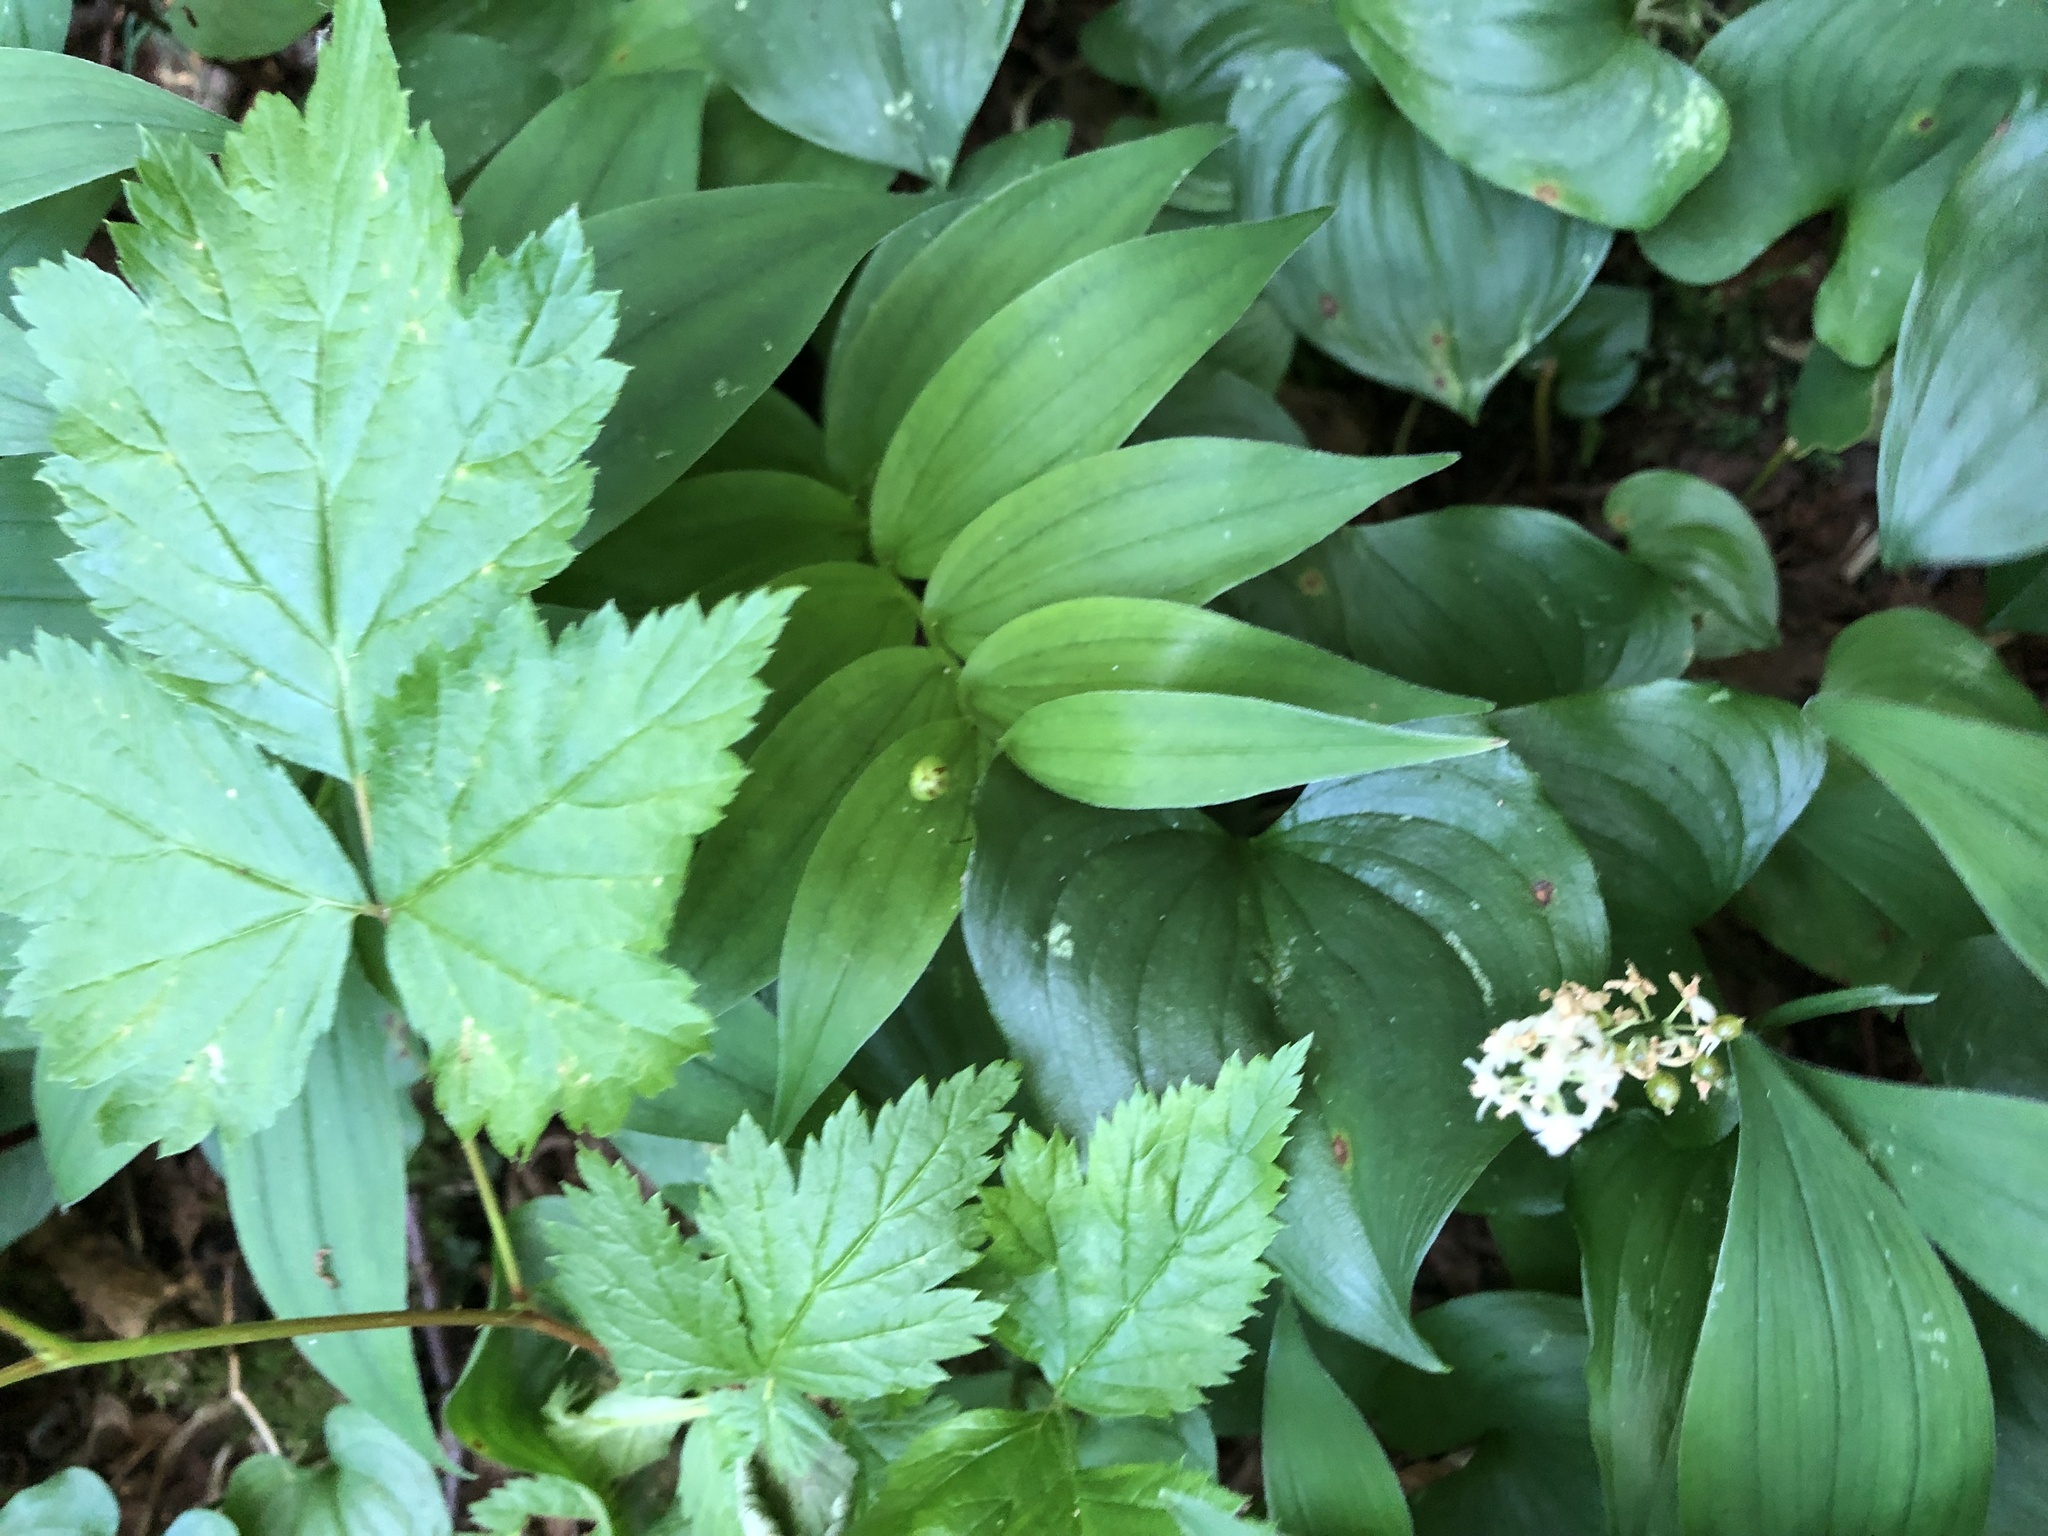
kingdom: Plantae
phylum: Tracheophyta
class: Liliopsida
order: Asparagales
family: Asparagaceae
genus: Maianthemum
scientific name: Maianthemum stellatum
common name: Little false solomon's seal
